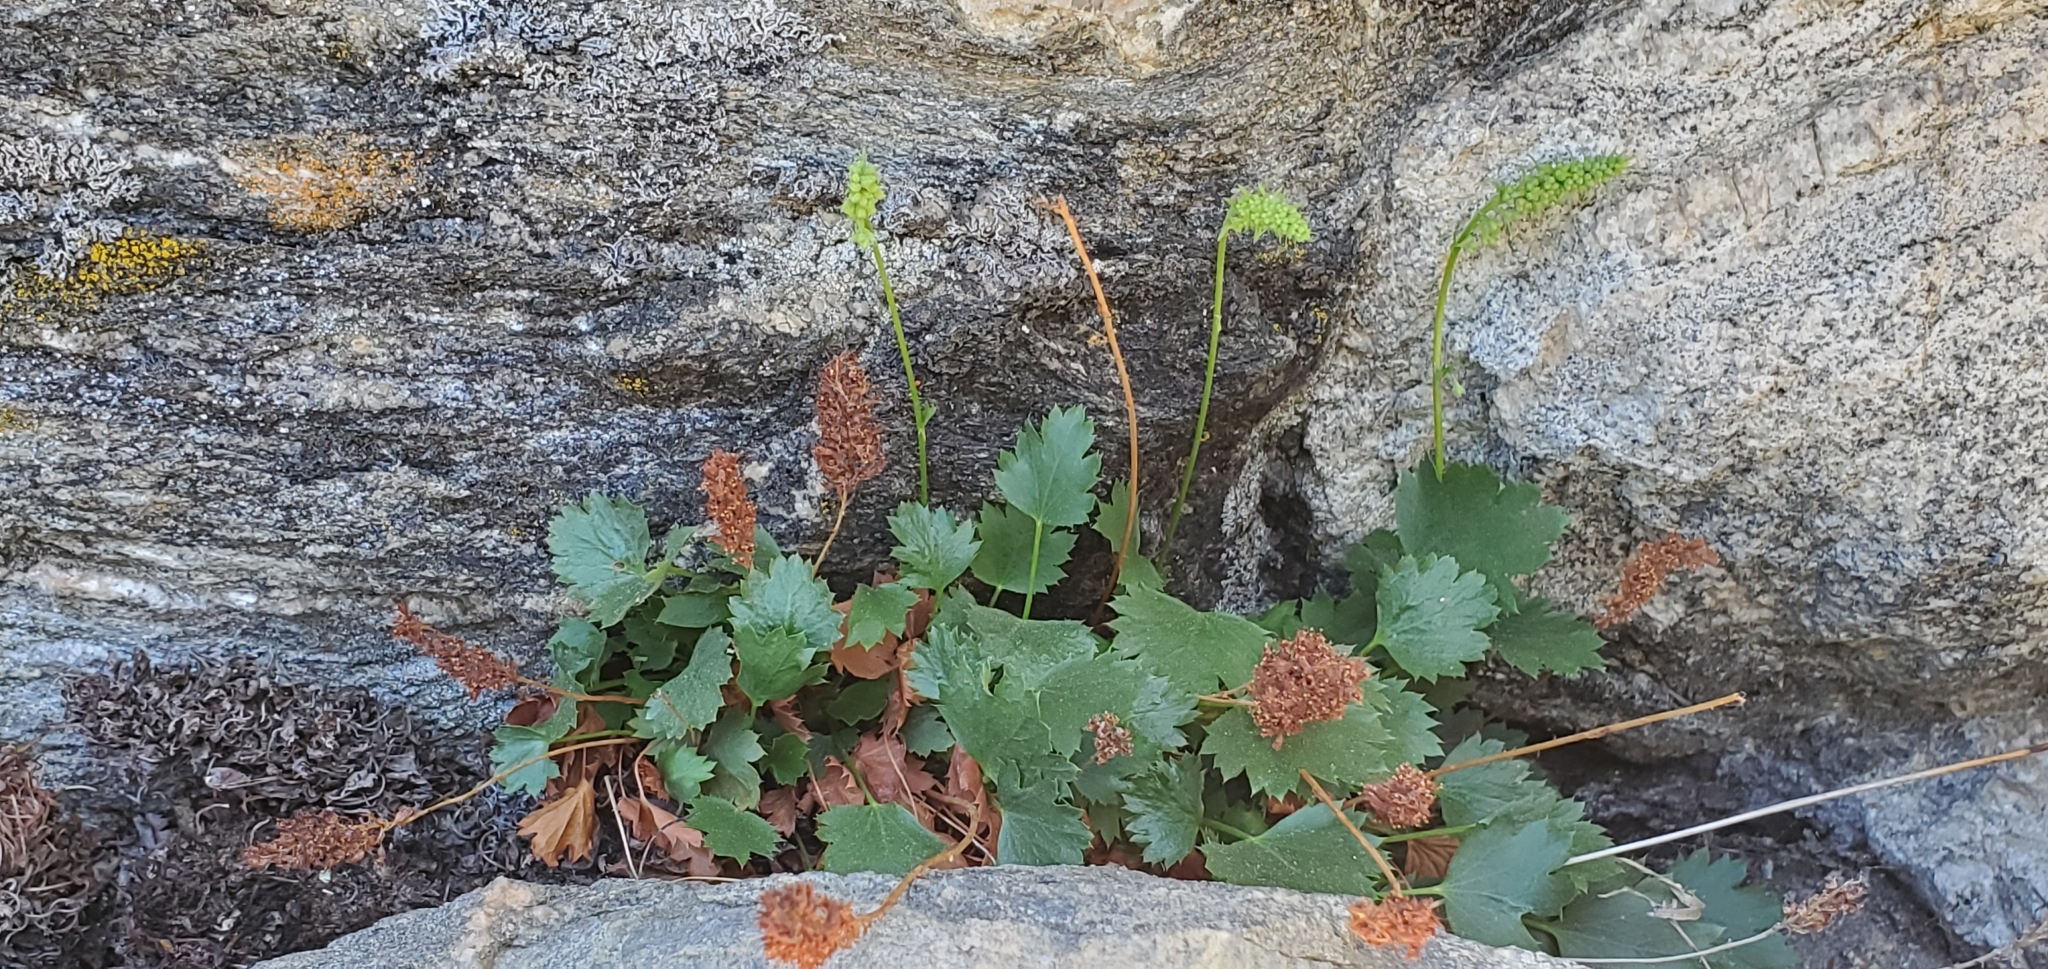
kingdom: Plantae
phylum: Tracheophyta
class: Magnoliopsida
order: Saxifragales
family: Saxifragaceae
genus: Heuchera
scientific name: Heuchera bracteata
